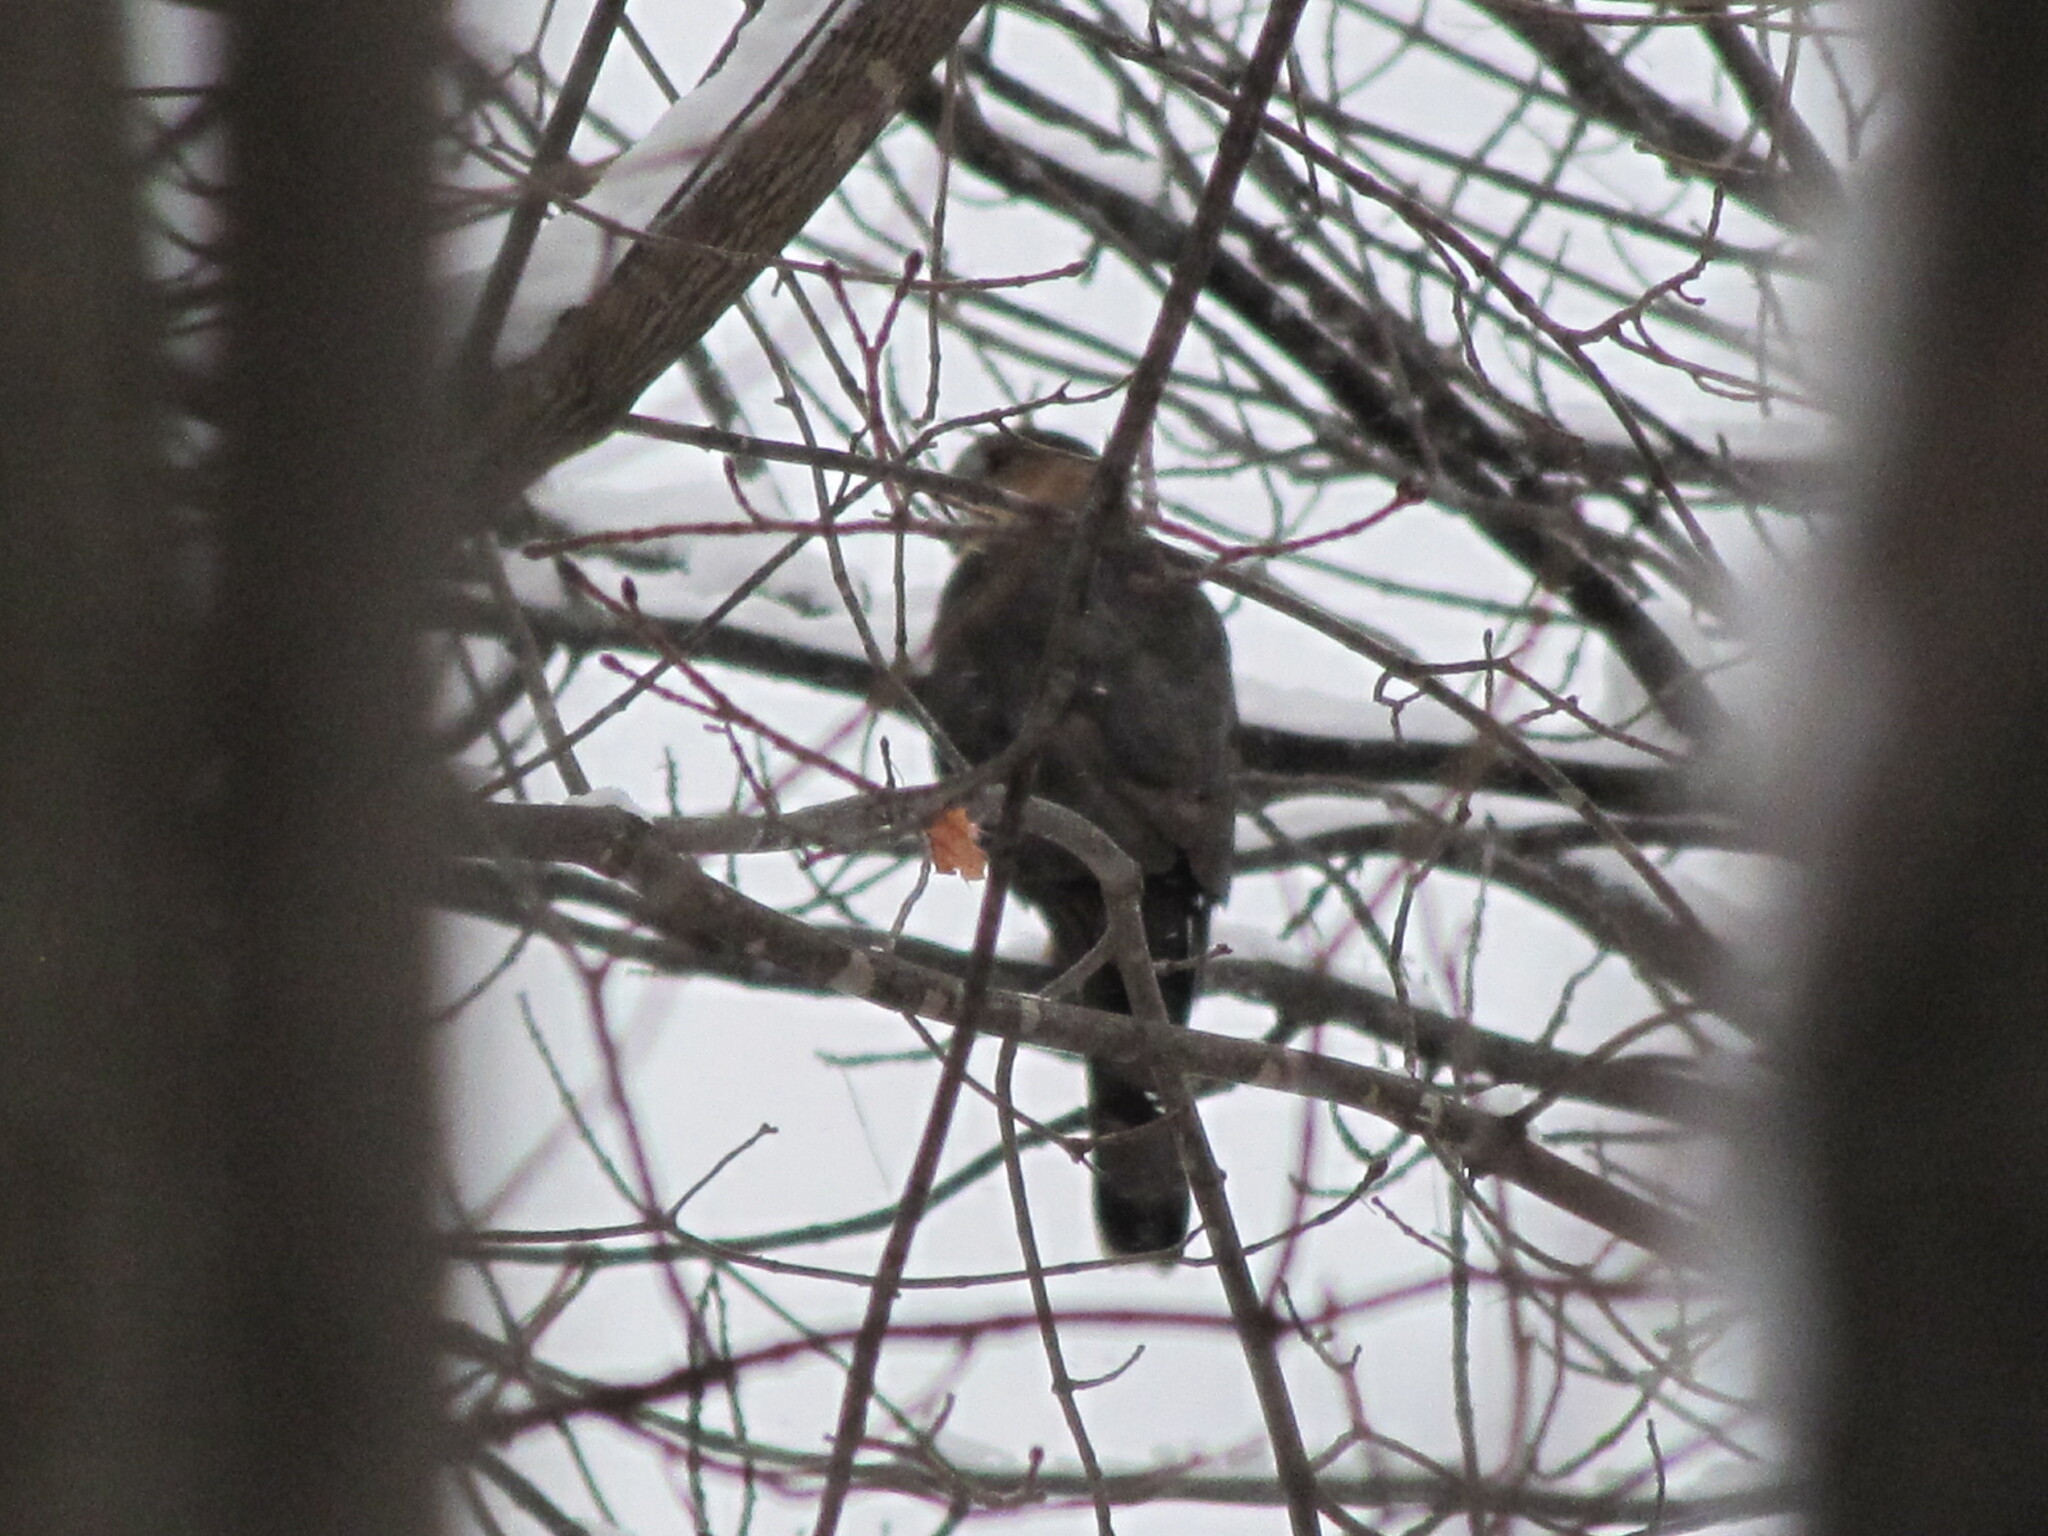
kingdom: Animalia
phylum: Chordata
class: Aves
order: Accipitriformes
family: Accipitridae
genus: Accipiter
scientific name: Accipiter cooperii
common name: Cooper's hawk
